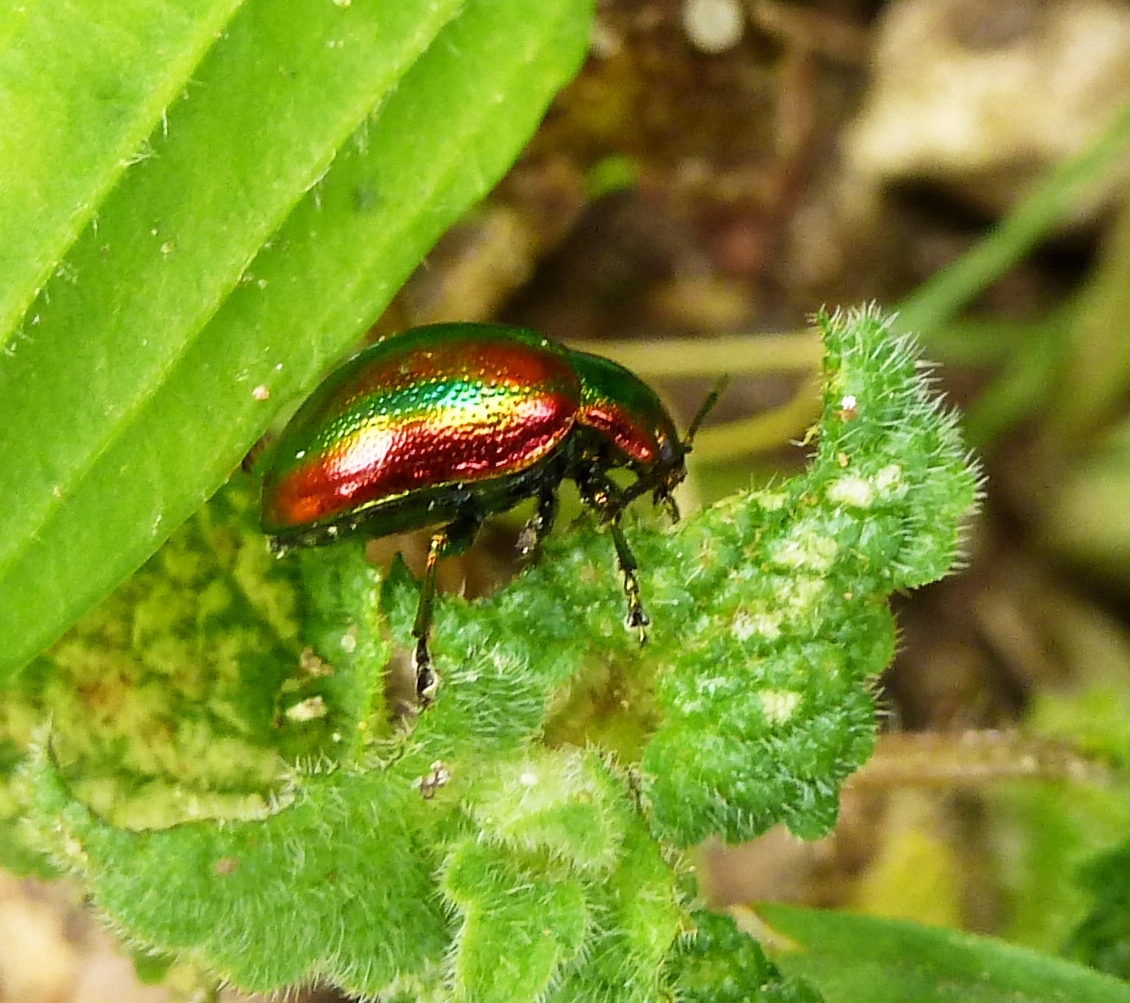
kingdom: Animalia
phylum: Arthropoda
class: Insecta
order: Coleoptera
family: Chrysomelidae
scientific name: Chrysomelidae
